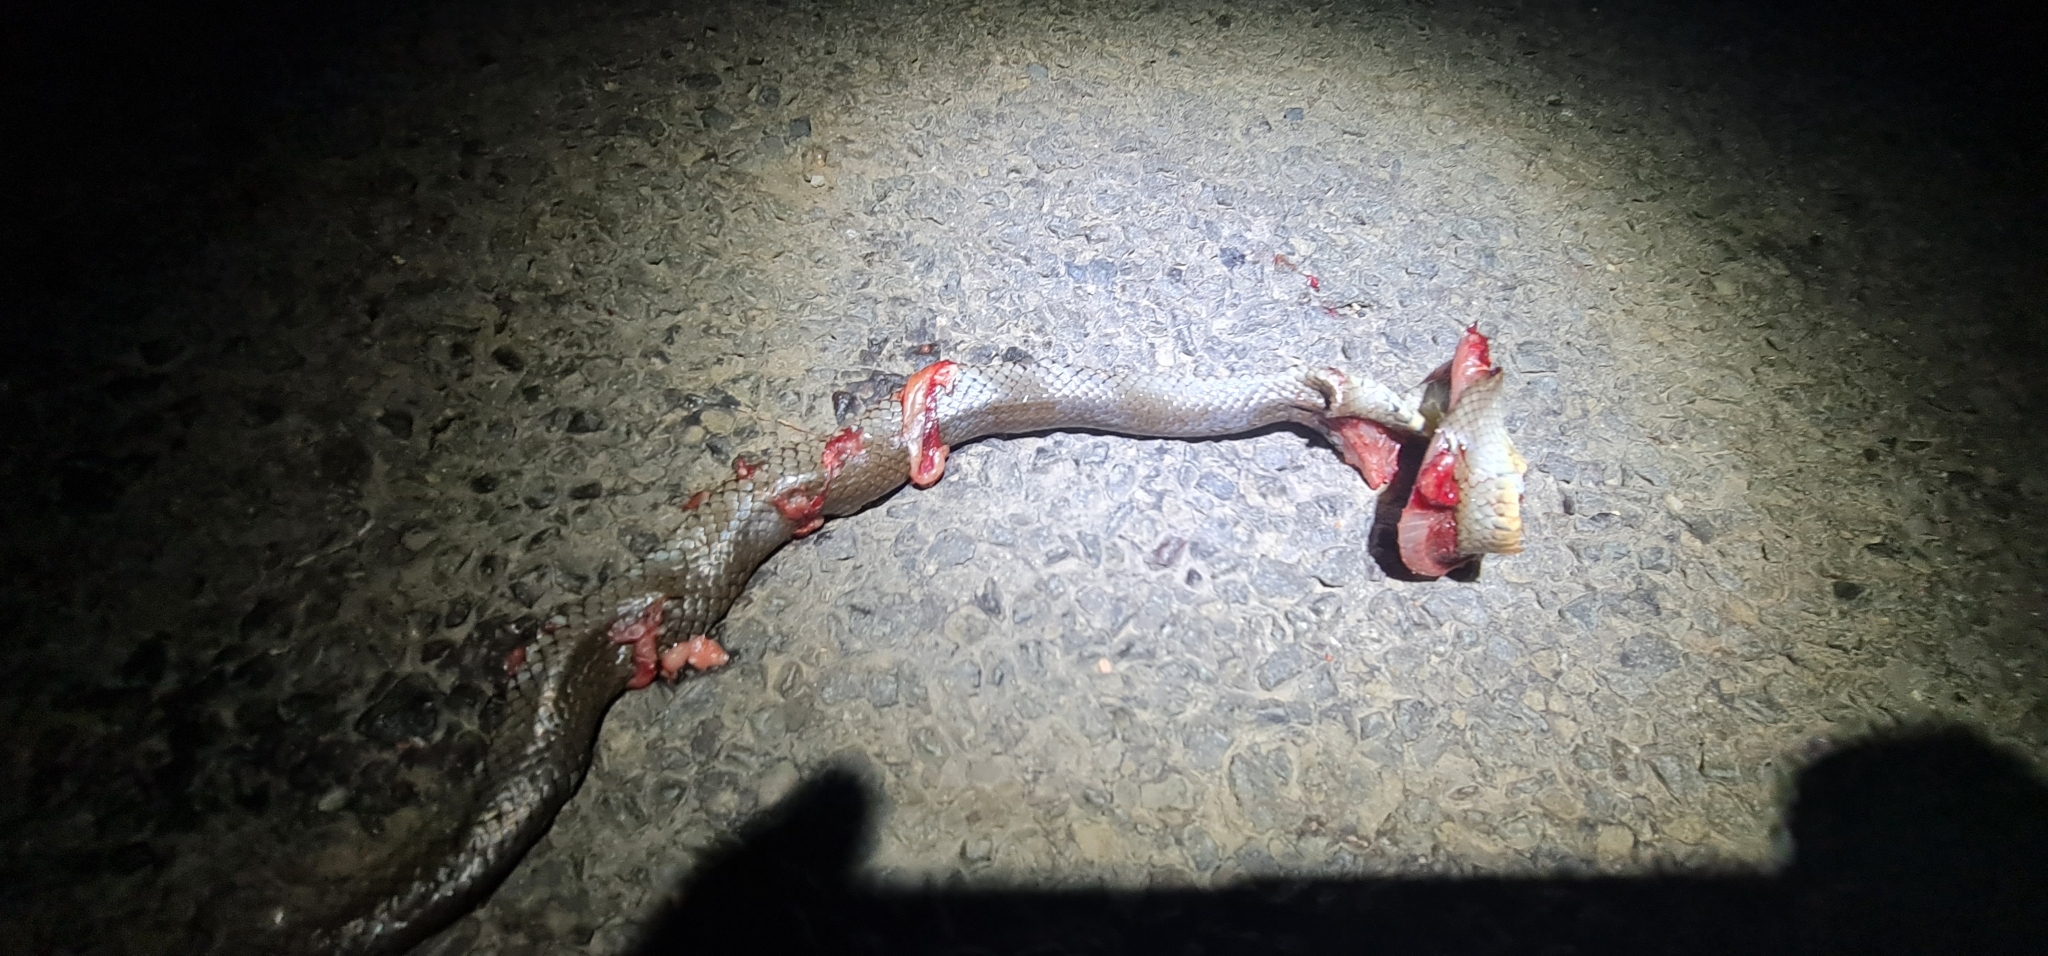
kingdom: Animalia
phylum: Chordata
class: Squamata
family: Elapidae
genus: Hemiaspis
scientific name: Hemiaspis damelii
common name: Grey snake
